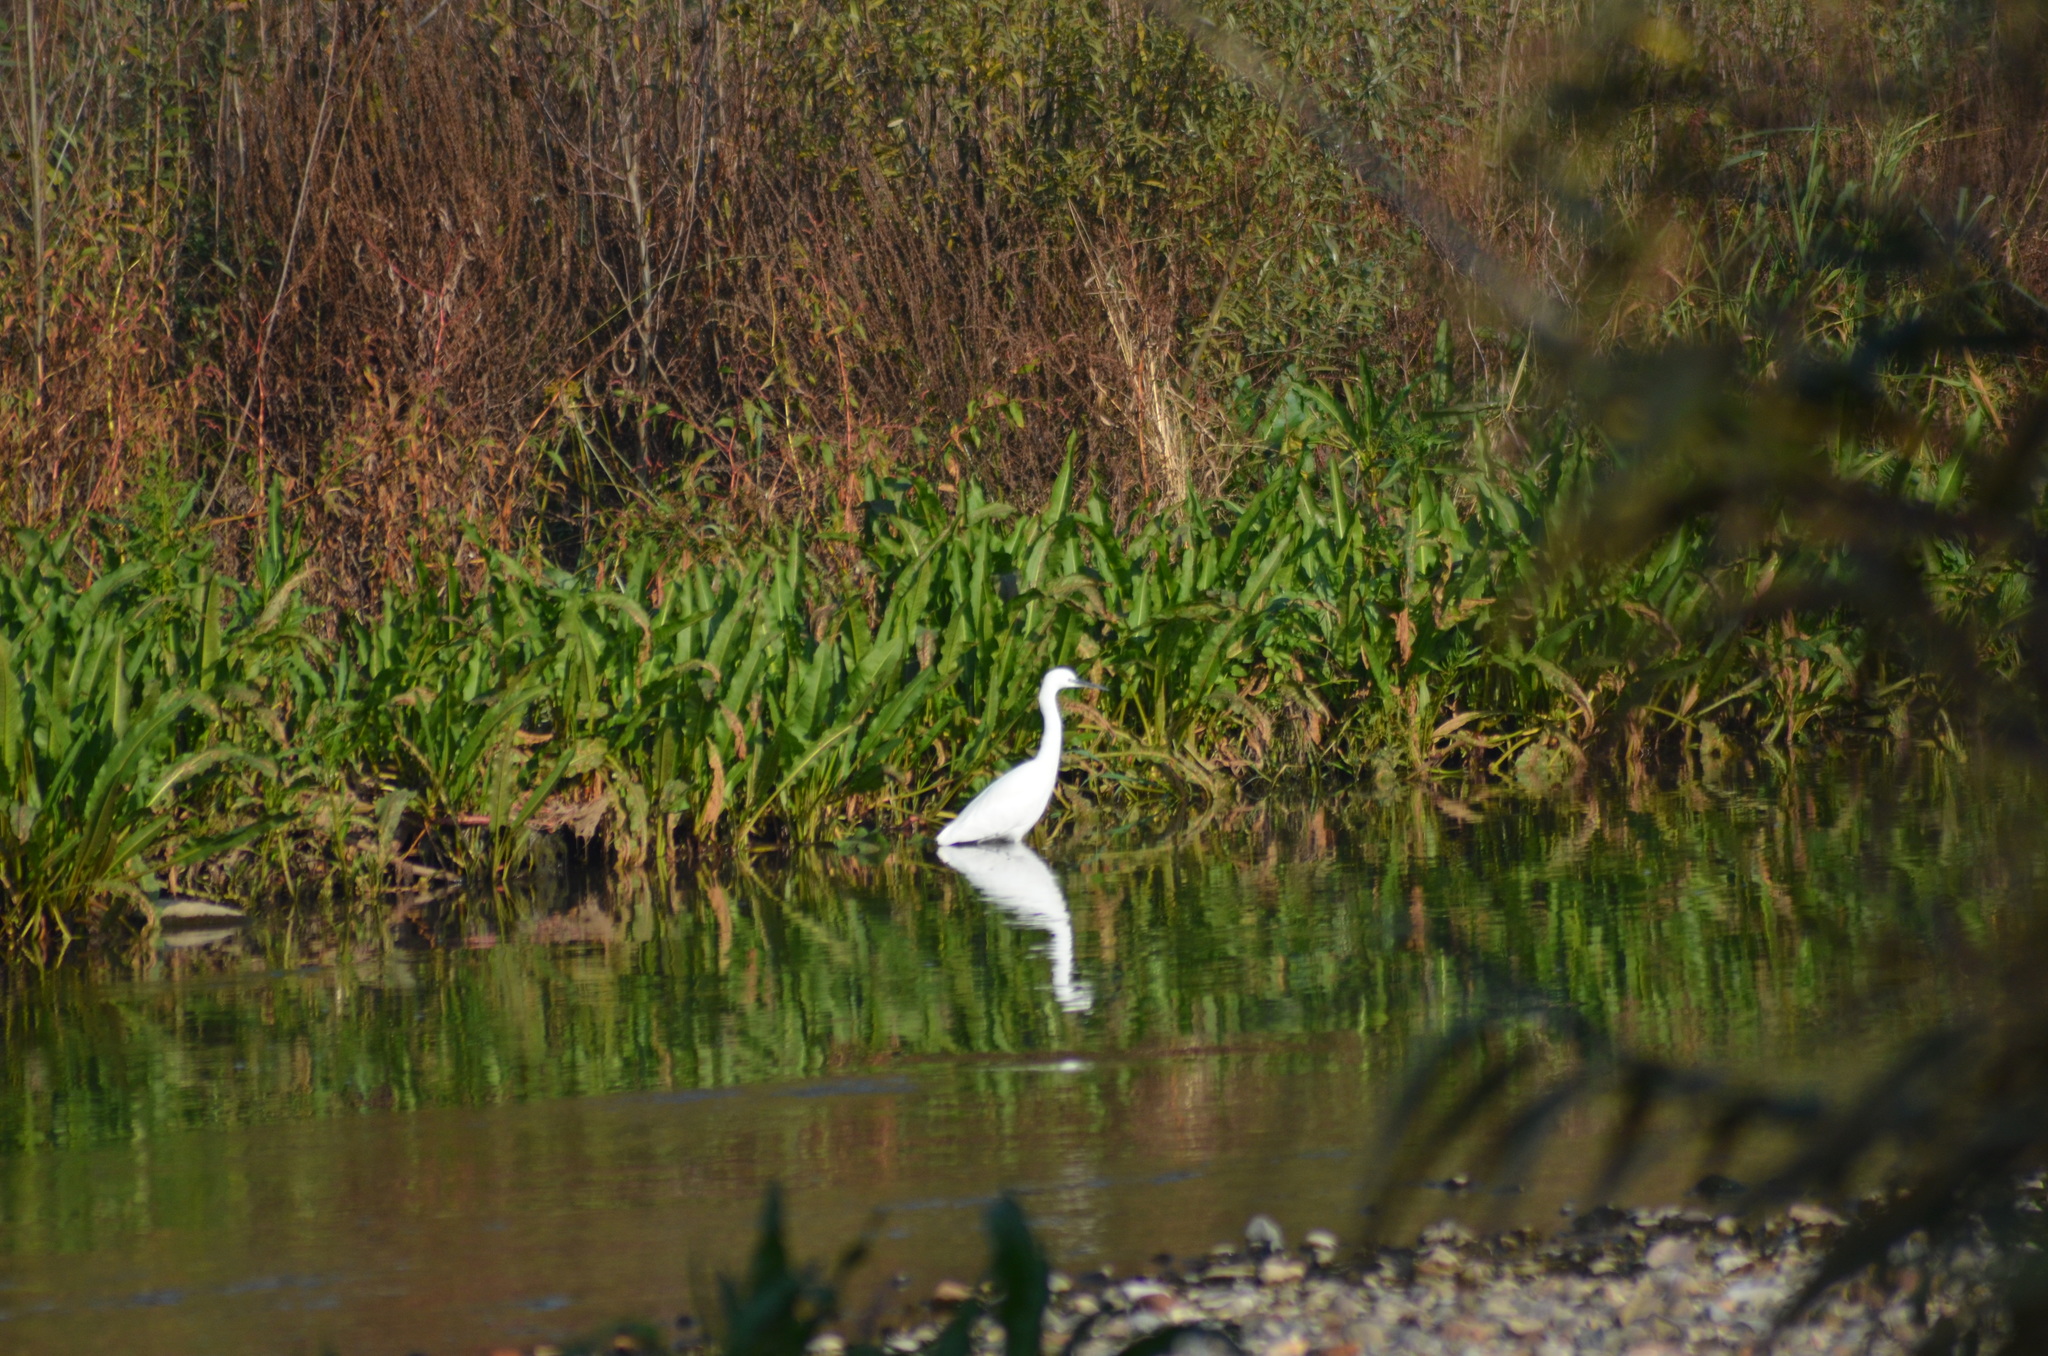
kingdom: Animalia
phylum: Chordata
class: Aves
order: Pelecaniformes
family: Ardeidae
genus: Egretta
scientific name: Egretta garzetta
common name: Little egret
